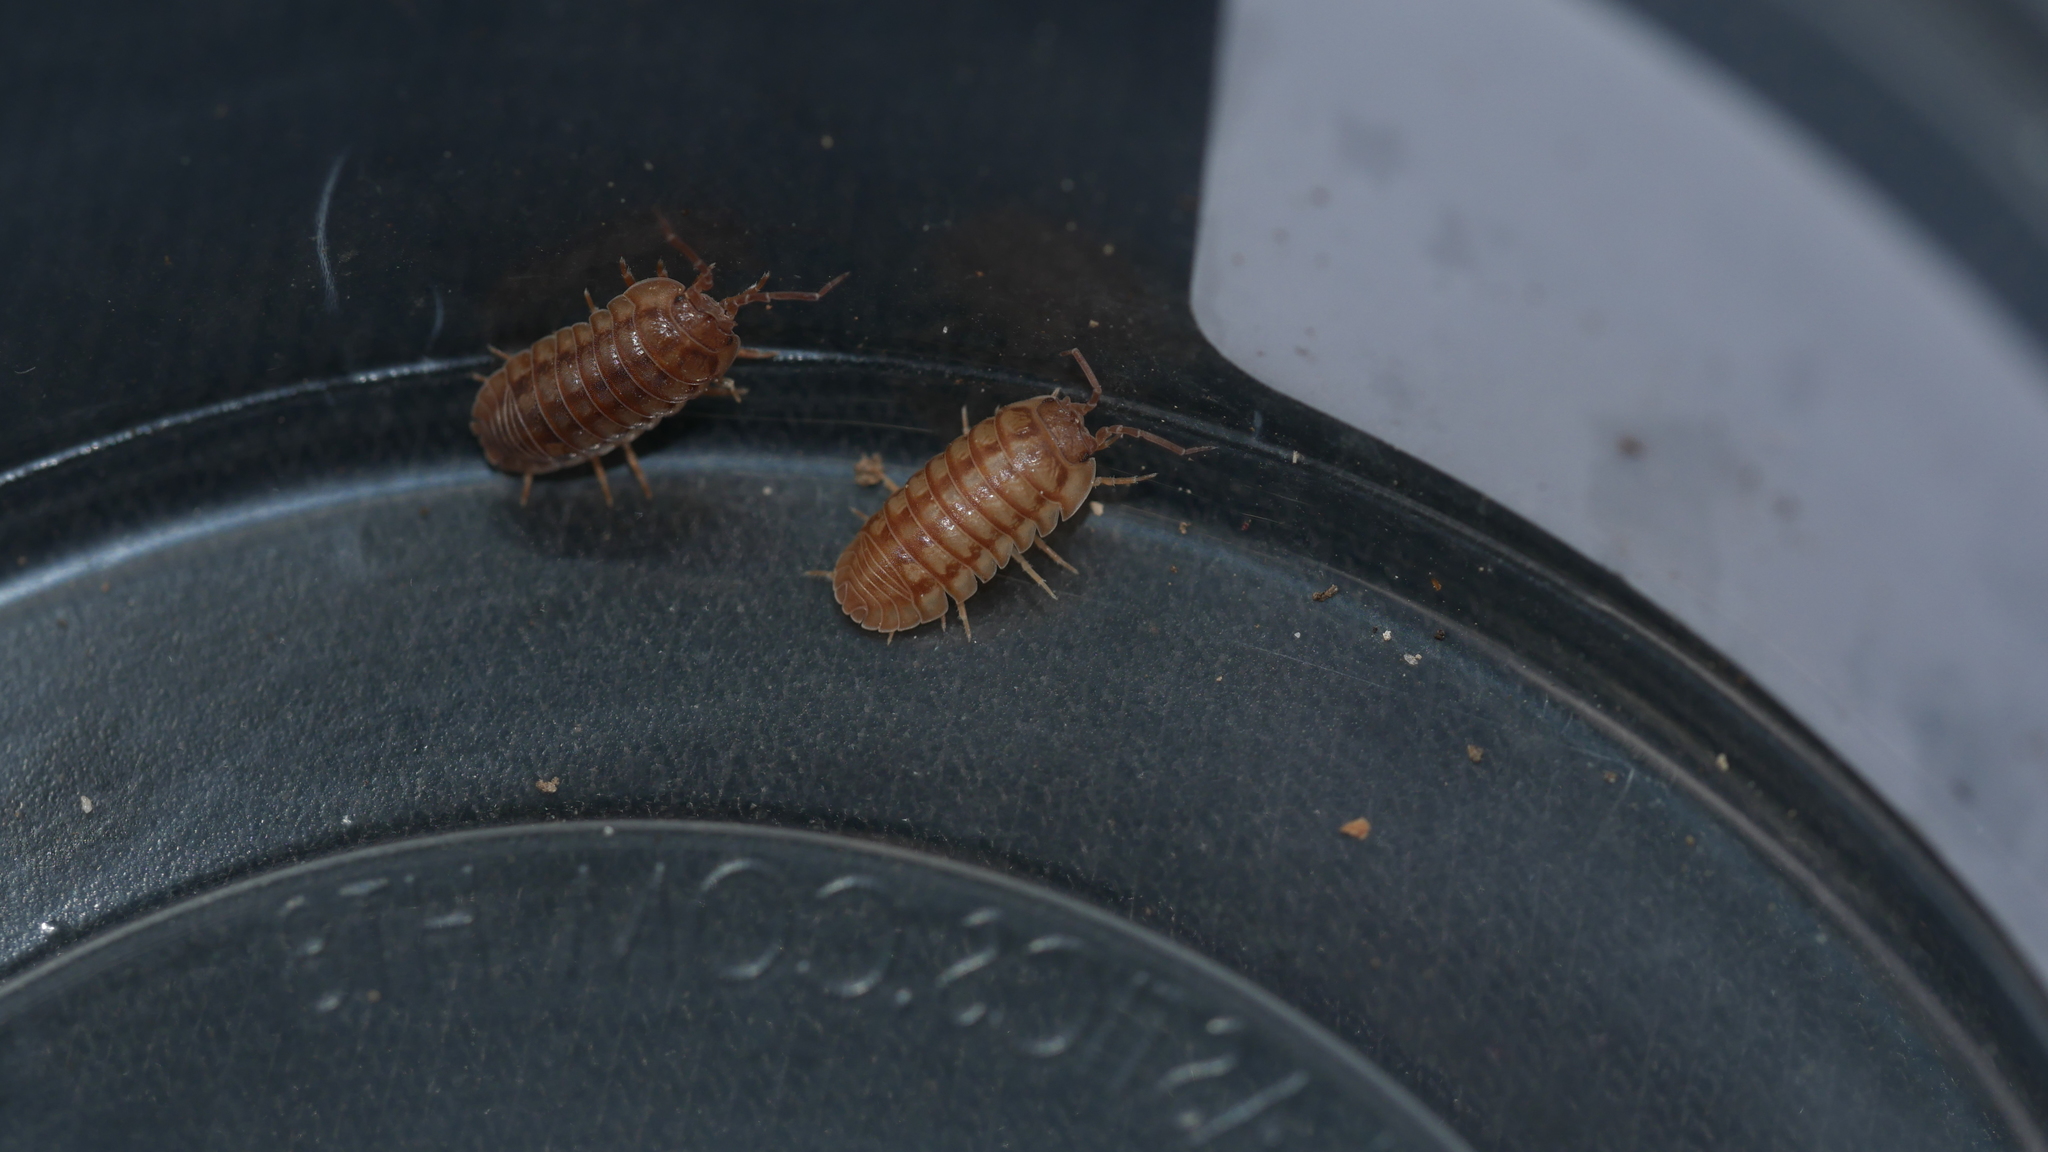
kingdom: Animalia
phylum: Arthropoda
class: Malacostraca
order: Isopoda
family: Armadillidiidae
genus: Armadillidium
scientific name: Armadillidium nasatum
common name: Isopod
